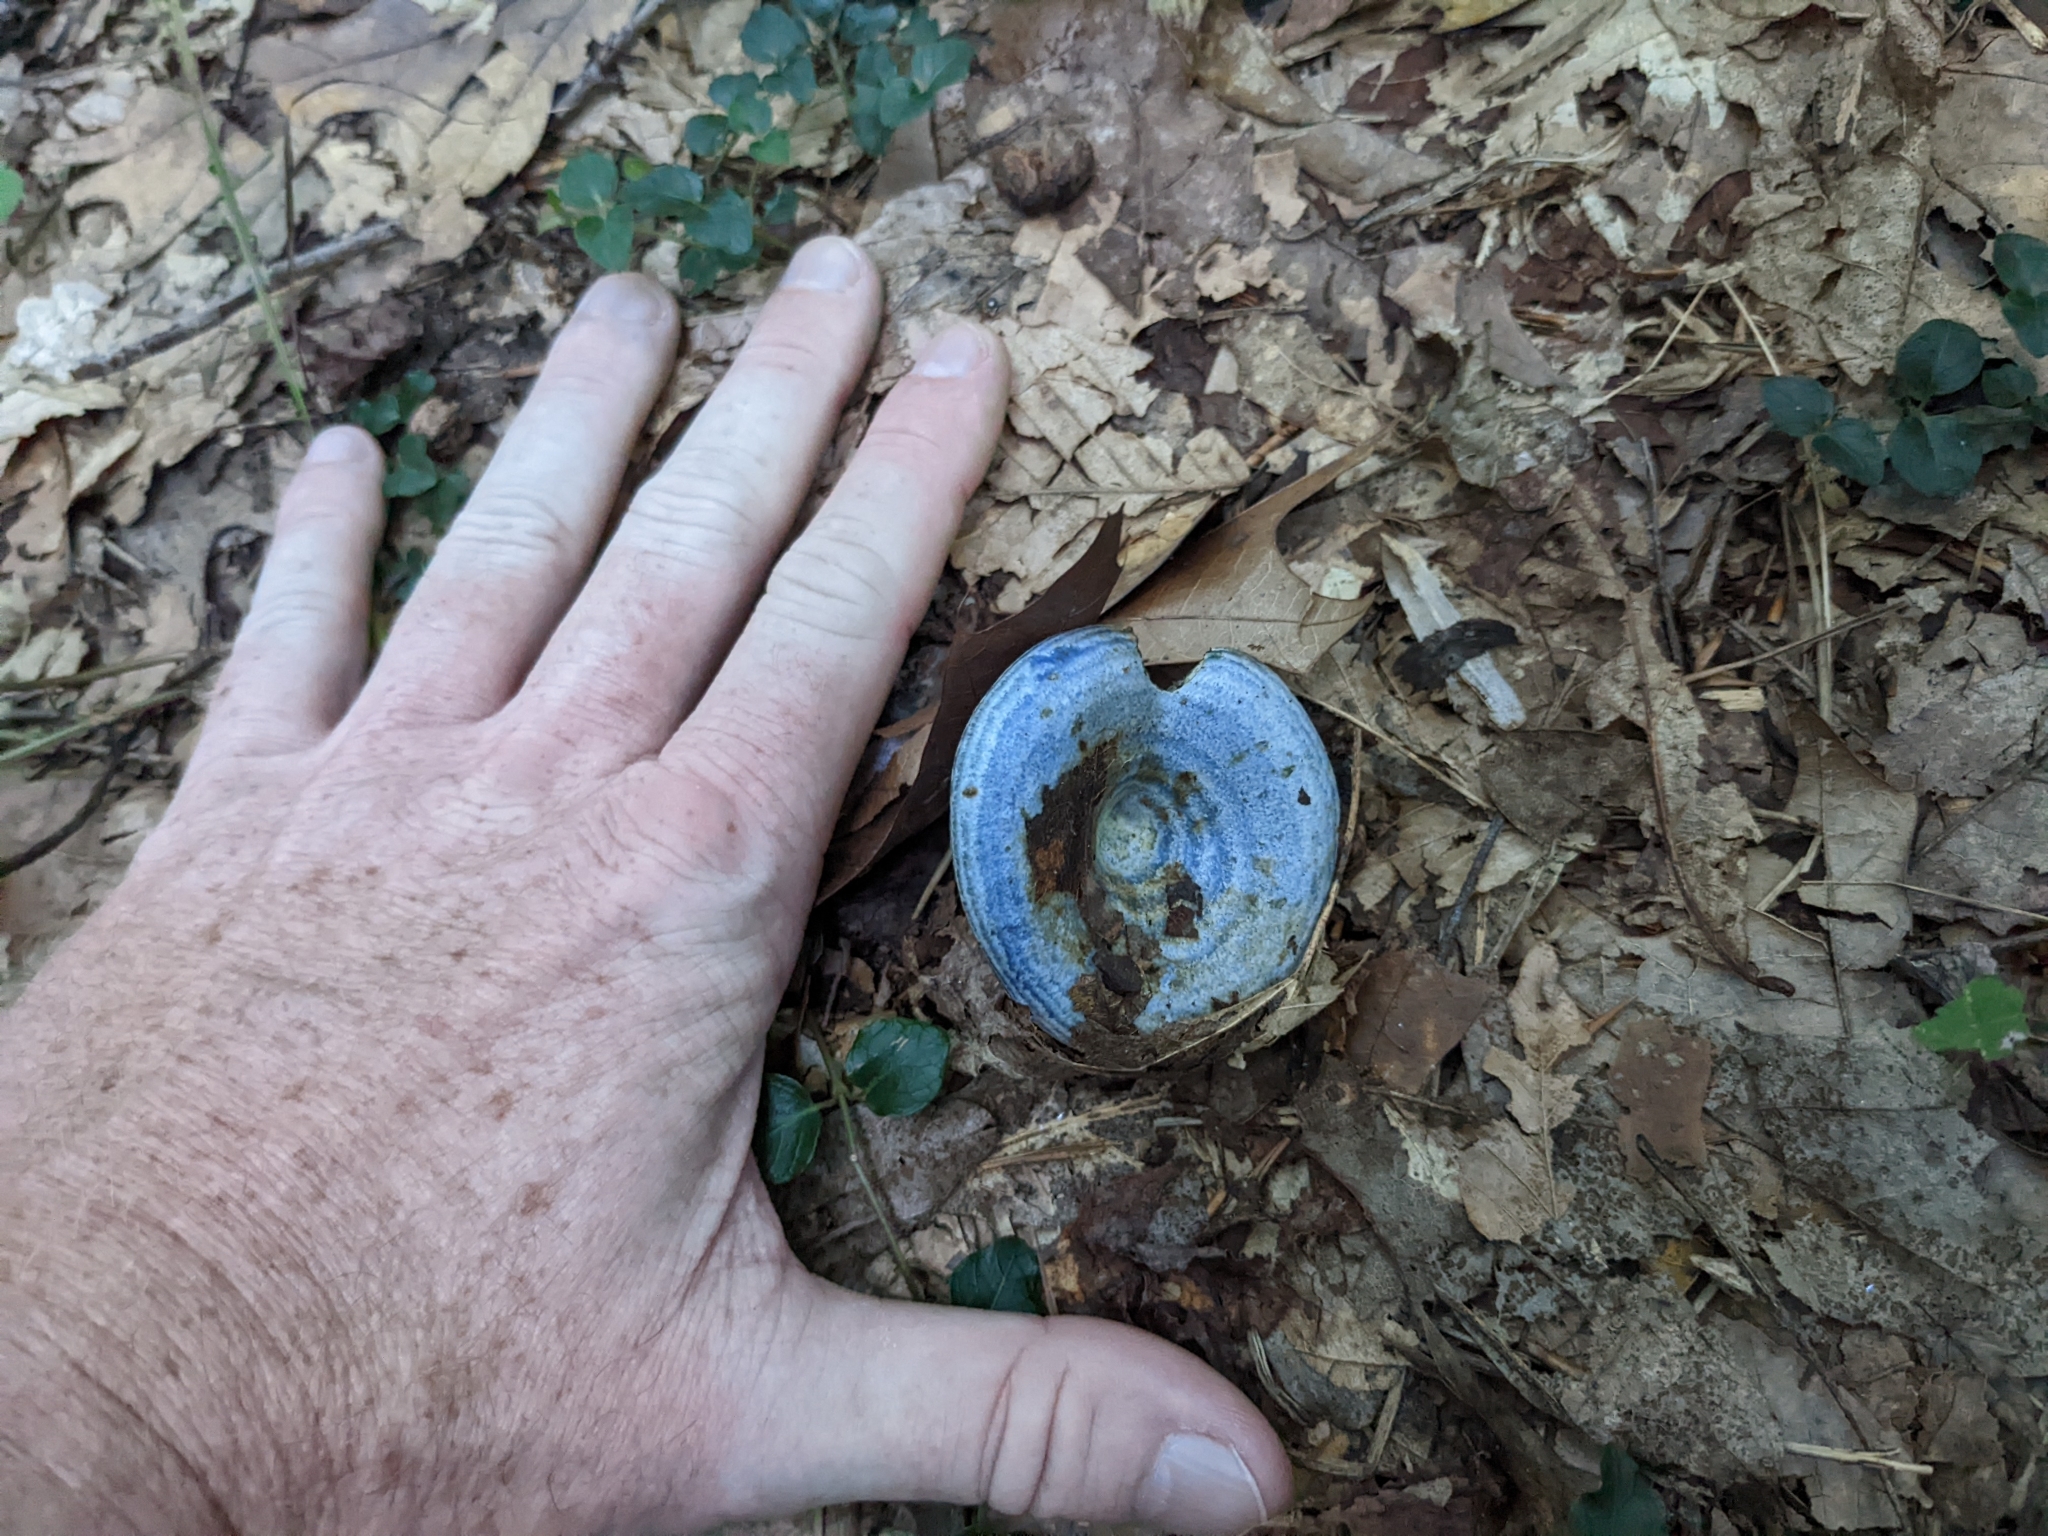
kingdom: Fungi
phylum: Basidiomycota
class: Agaricomycetes
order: Russulales
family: Russulaceae
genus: Lactarius
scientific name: Lactarius indigo
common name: Indigo milk cap
